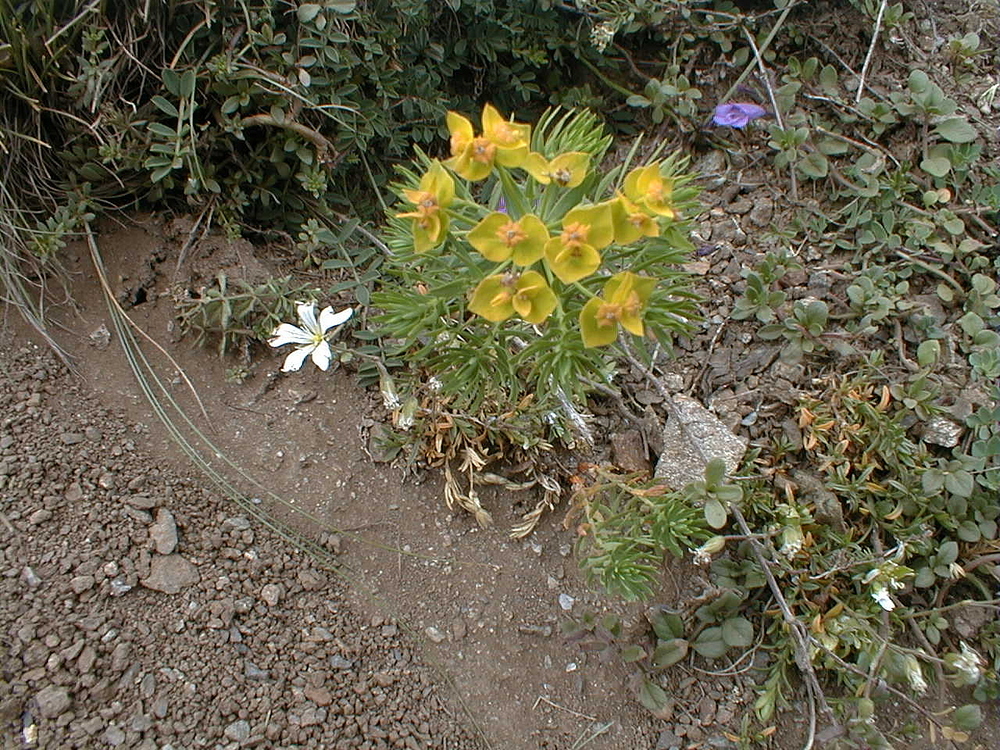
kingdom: Plantae
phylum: Tracheophyta
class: Magnoliopsida
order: Malpighiales
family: Euphorbiaceae
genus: Euphorbia
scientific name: Euphorbia cyparissias
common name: Cypress spurge
